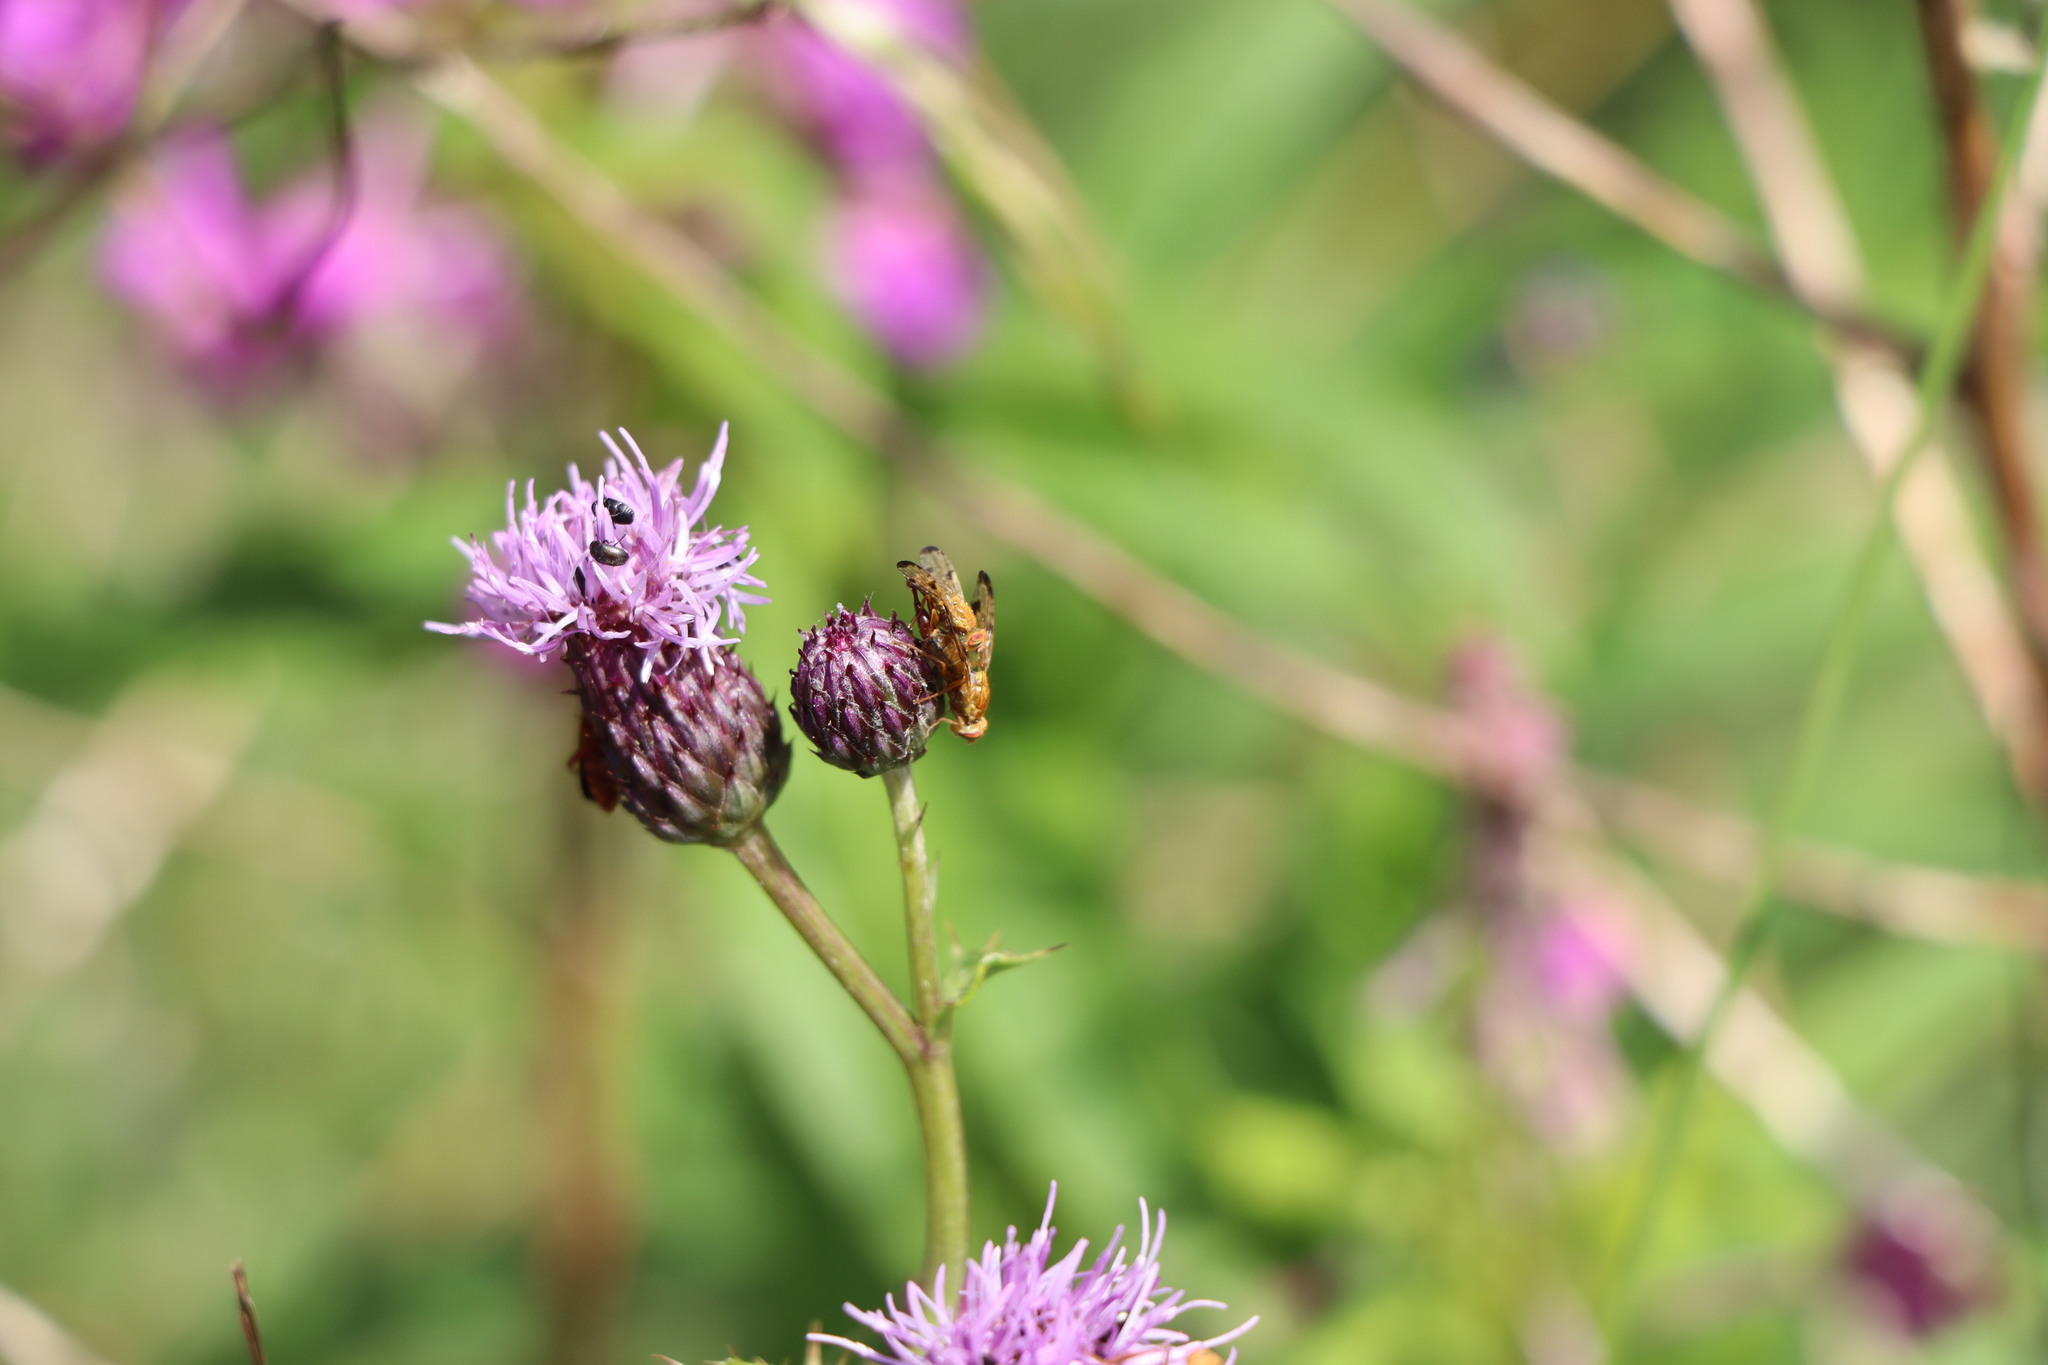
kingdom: Animalia
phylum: Arthropoda
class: Insecta
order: Diptera
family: Tephritidae
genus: Xyphosia
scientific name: Xyphosia miliaria
